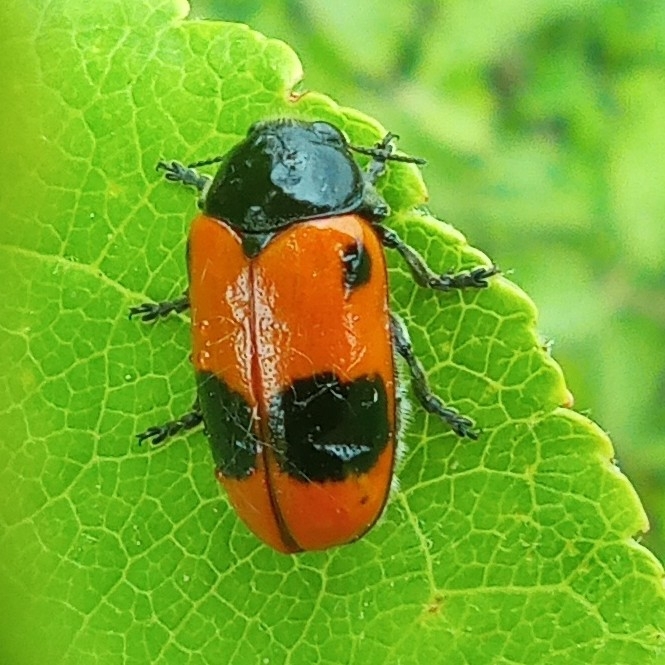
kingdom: Animalia
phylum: Arthropoda
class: Insecta
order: Coleoptera
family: Chrysomelidae
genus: Clytra
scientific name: Clytra laeviuscula
